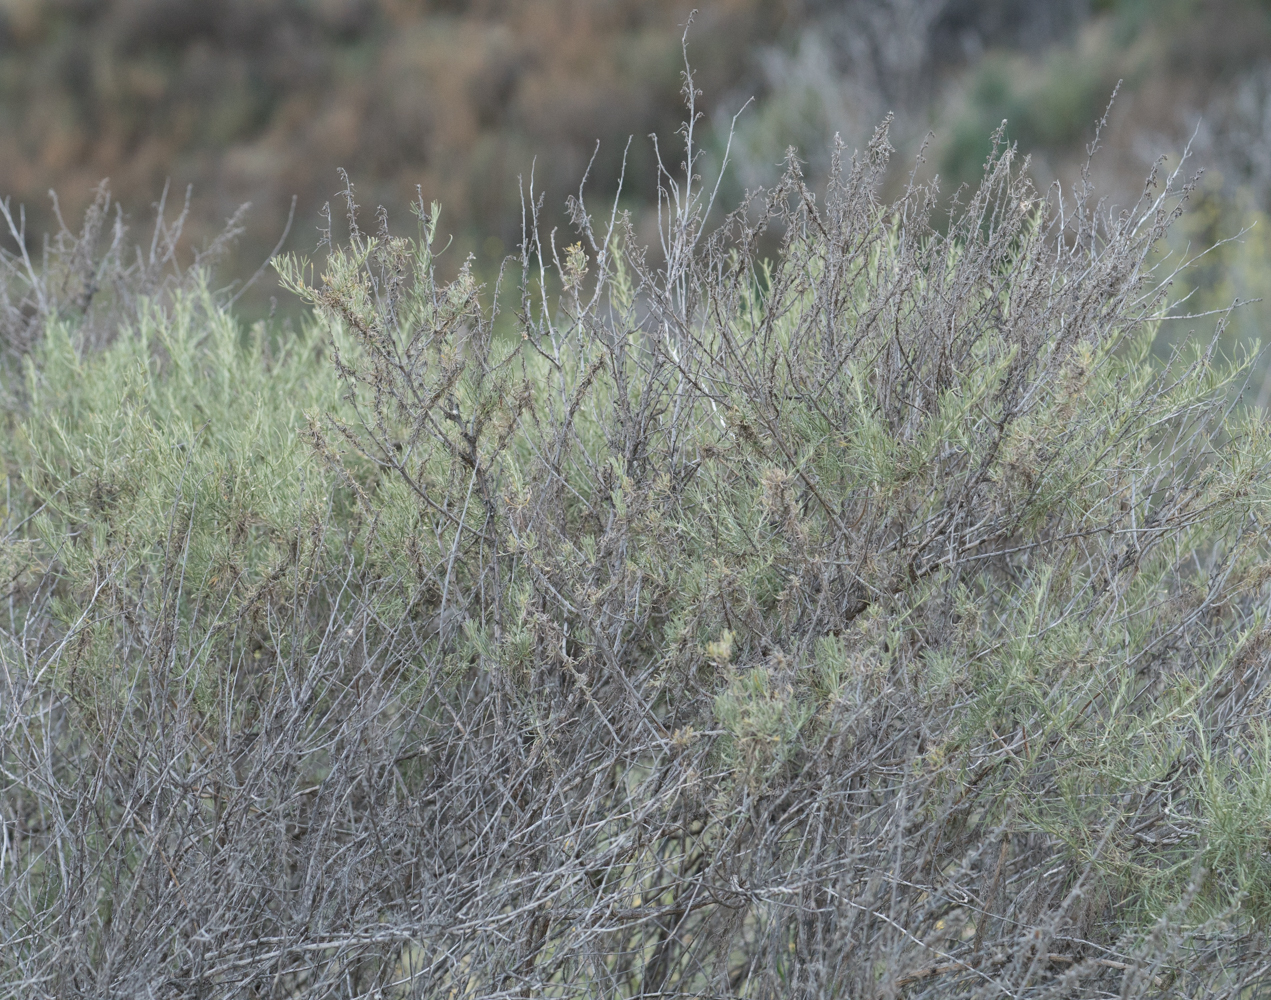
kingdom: Plantae
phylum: Tracheophyta
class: Magnoliopsida
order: Asterales
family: Asteraceae
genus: Artemisia
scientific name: Artemisia californica
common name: California sagebrush
